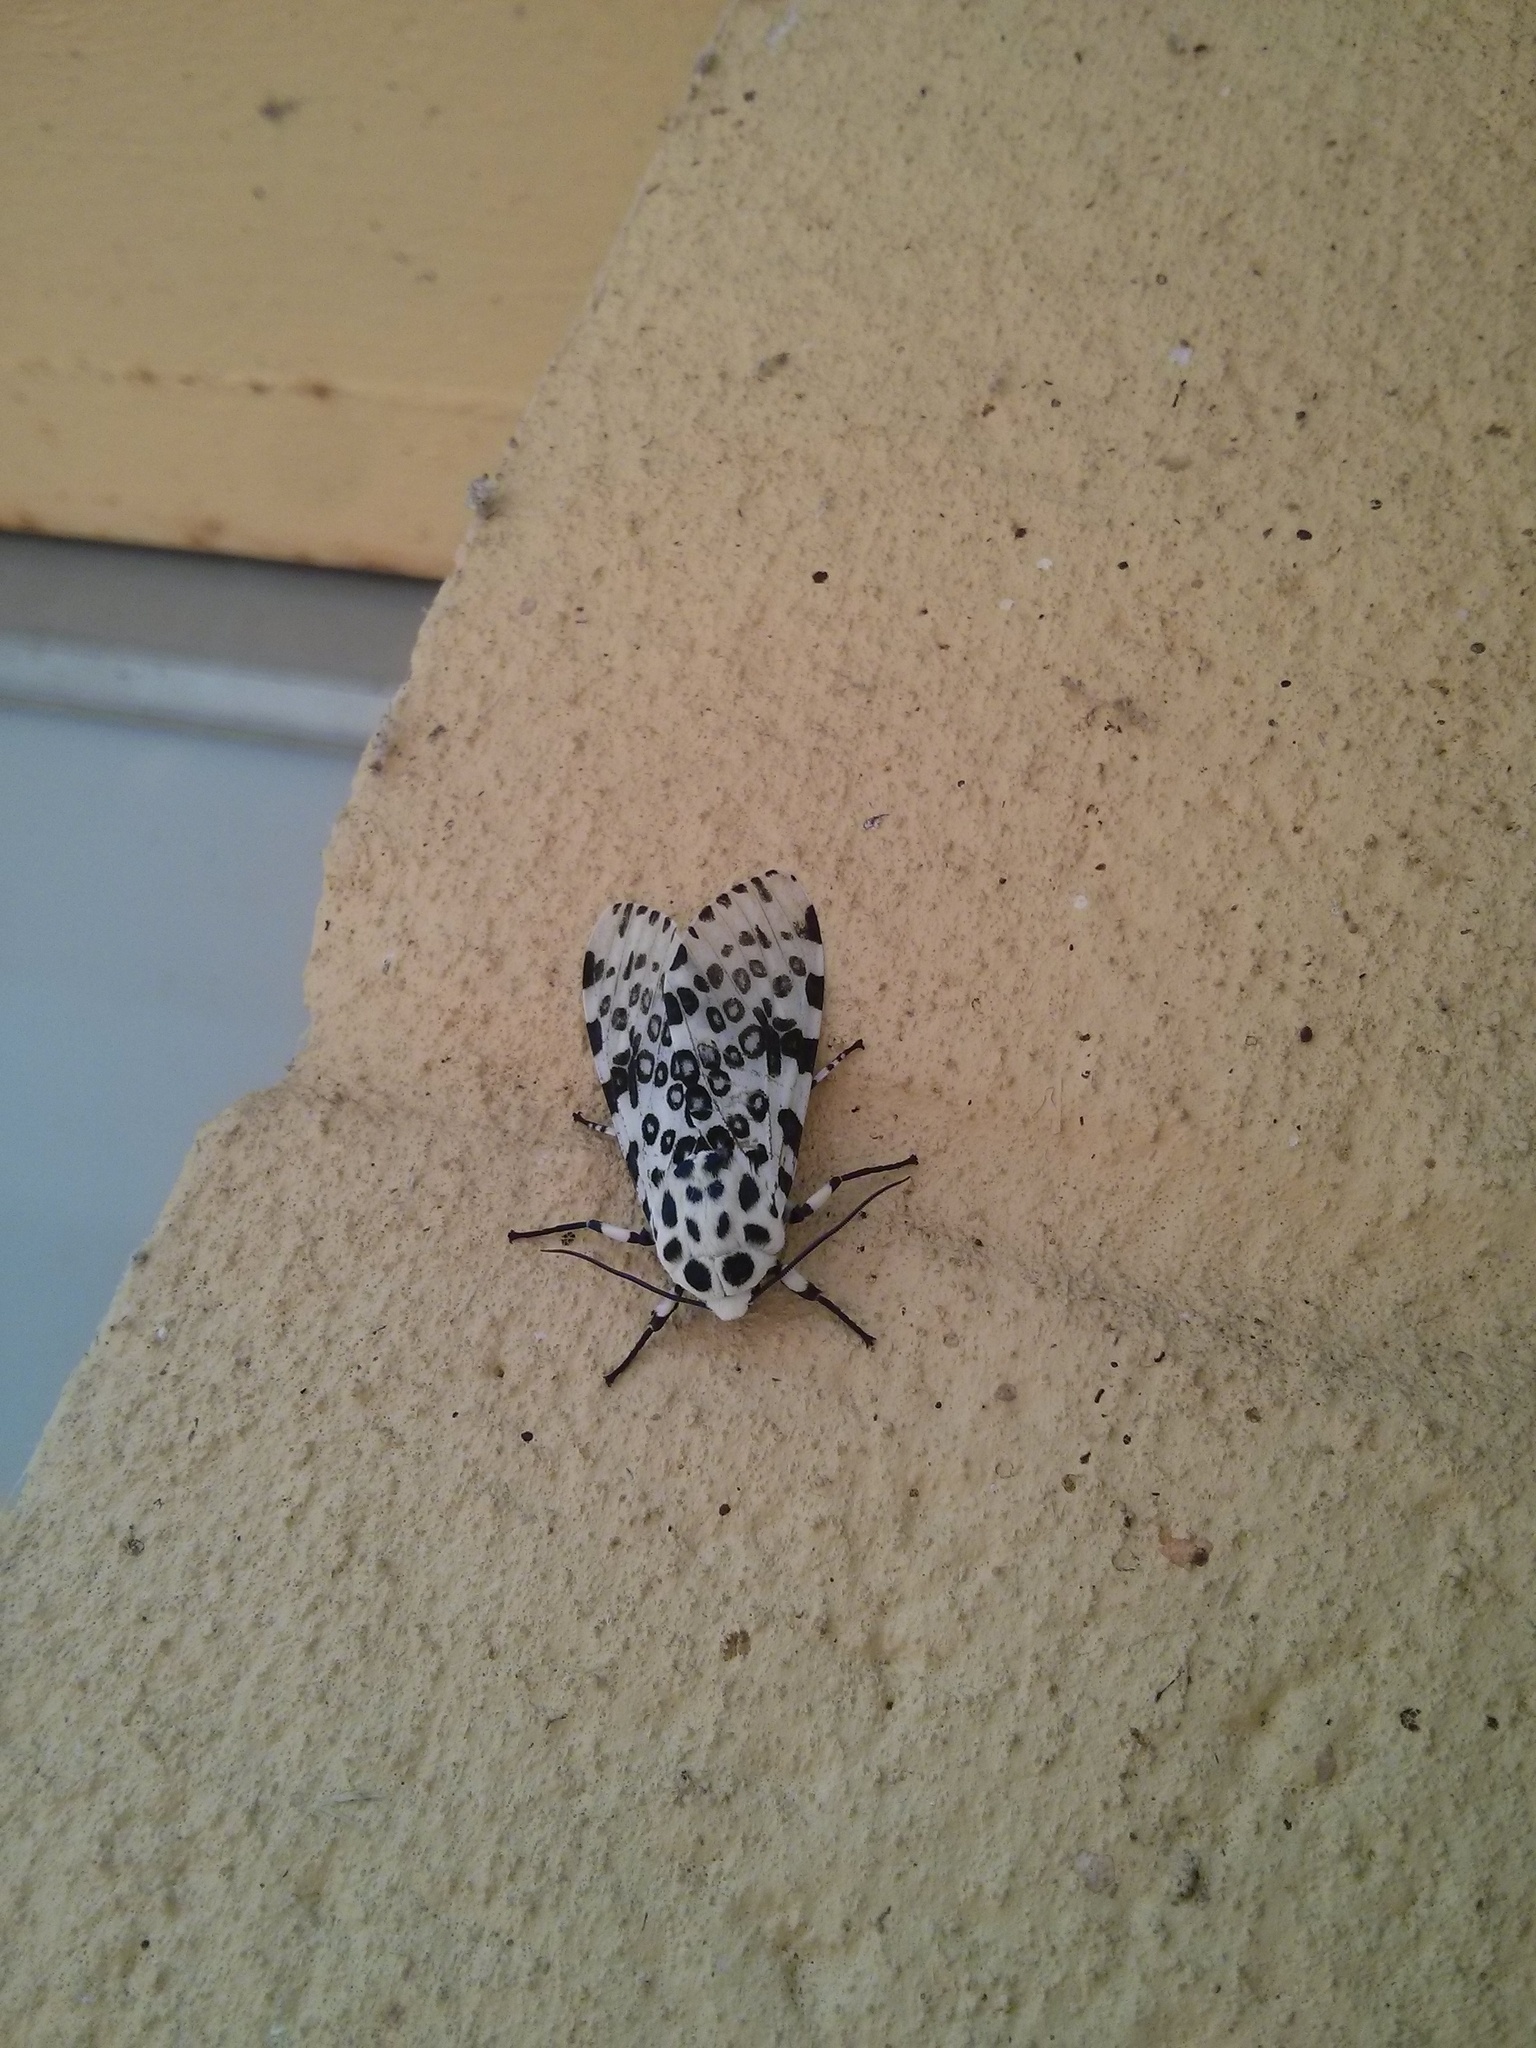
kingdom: Animalia
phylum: Arthropoda
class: Insecta
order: Lepidoptera
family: Erebidae
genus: Hypercompe
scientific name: Hypercompe scribonia
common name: Giant leopard moth
